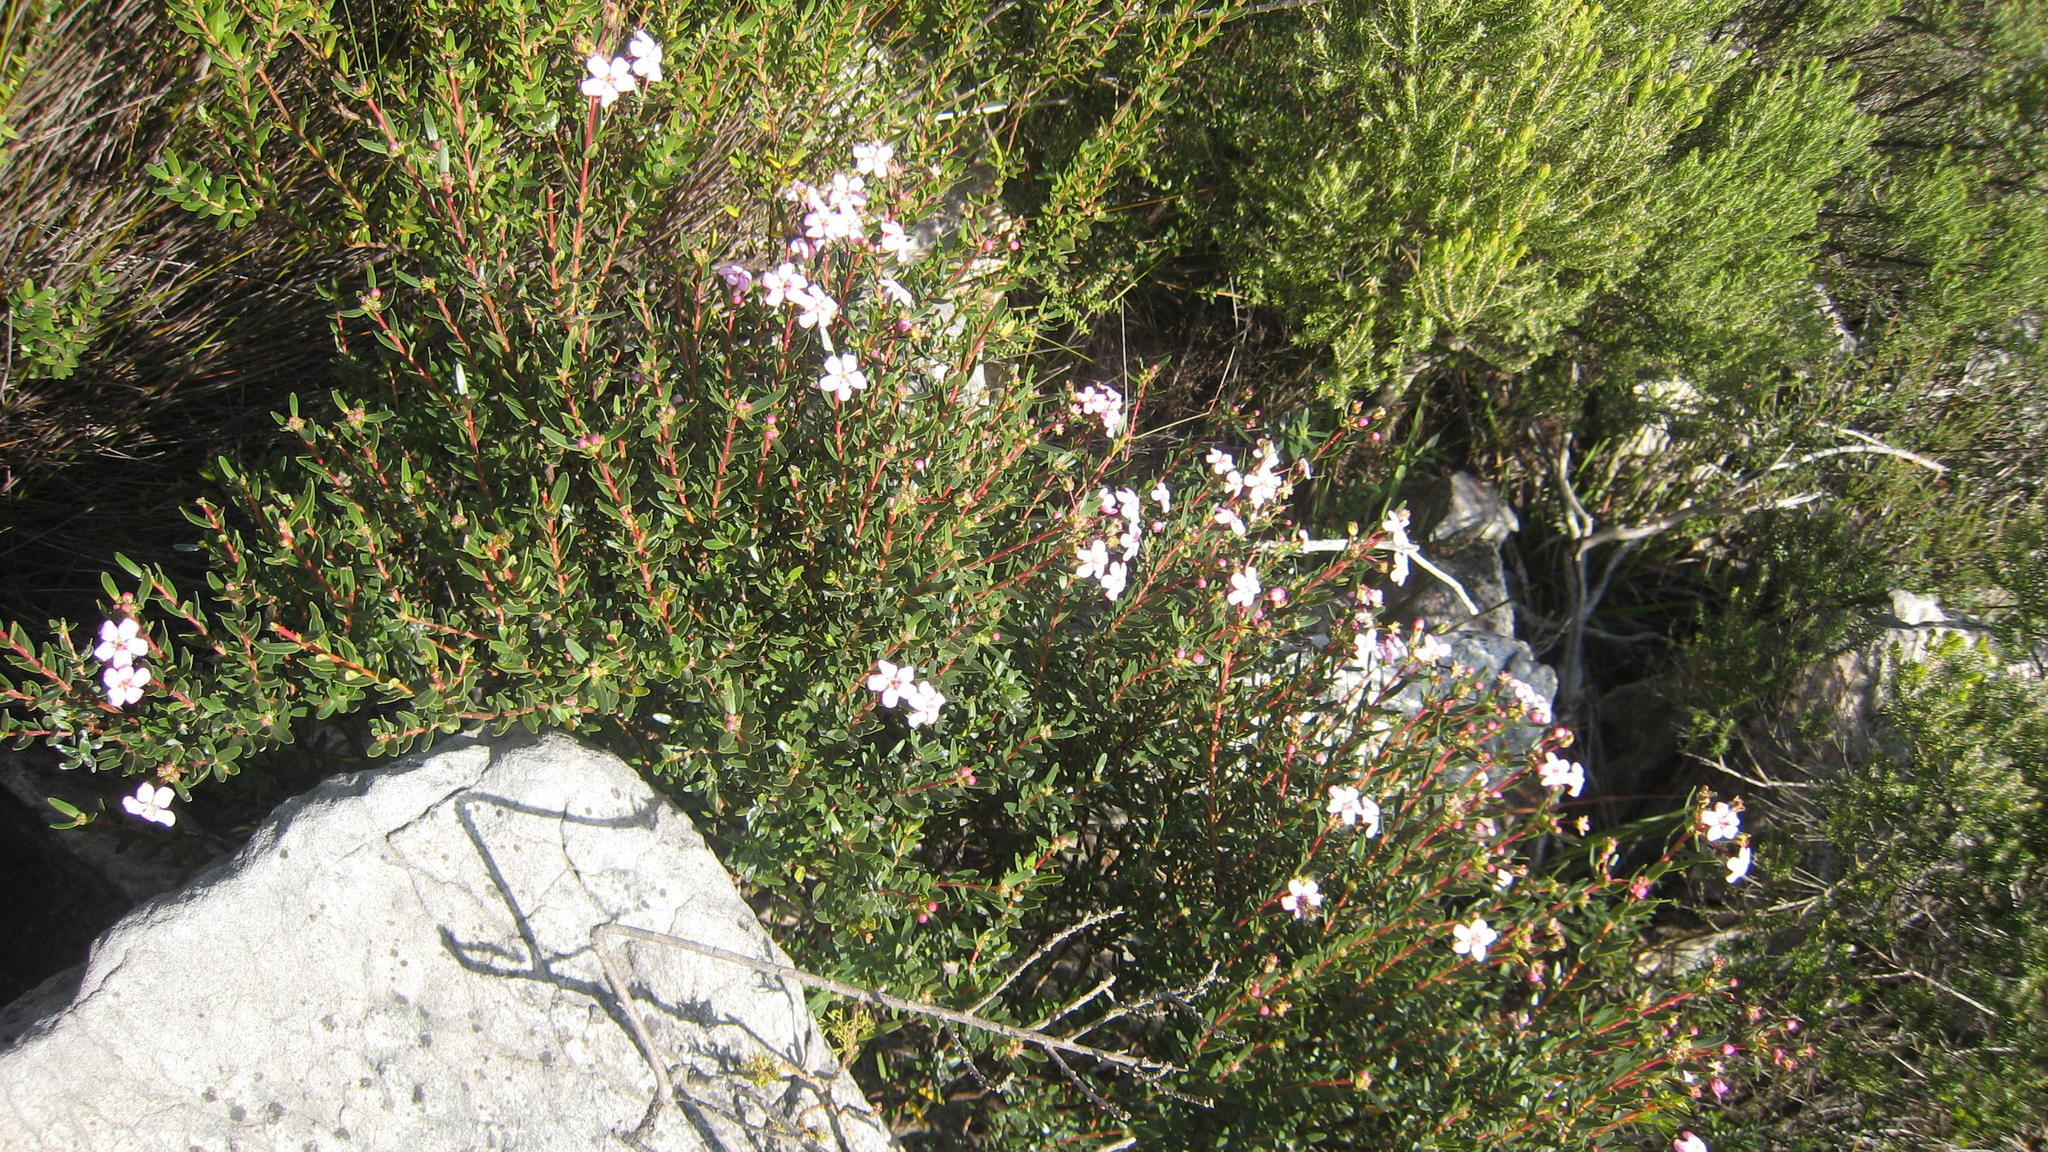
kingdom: Plantae
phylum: Tracheophyta
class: Magnoliopsida
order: Sapindales
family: Rutaceae
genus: Adenandra
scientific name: Adenandra fragrans
